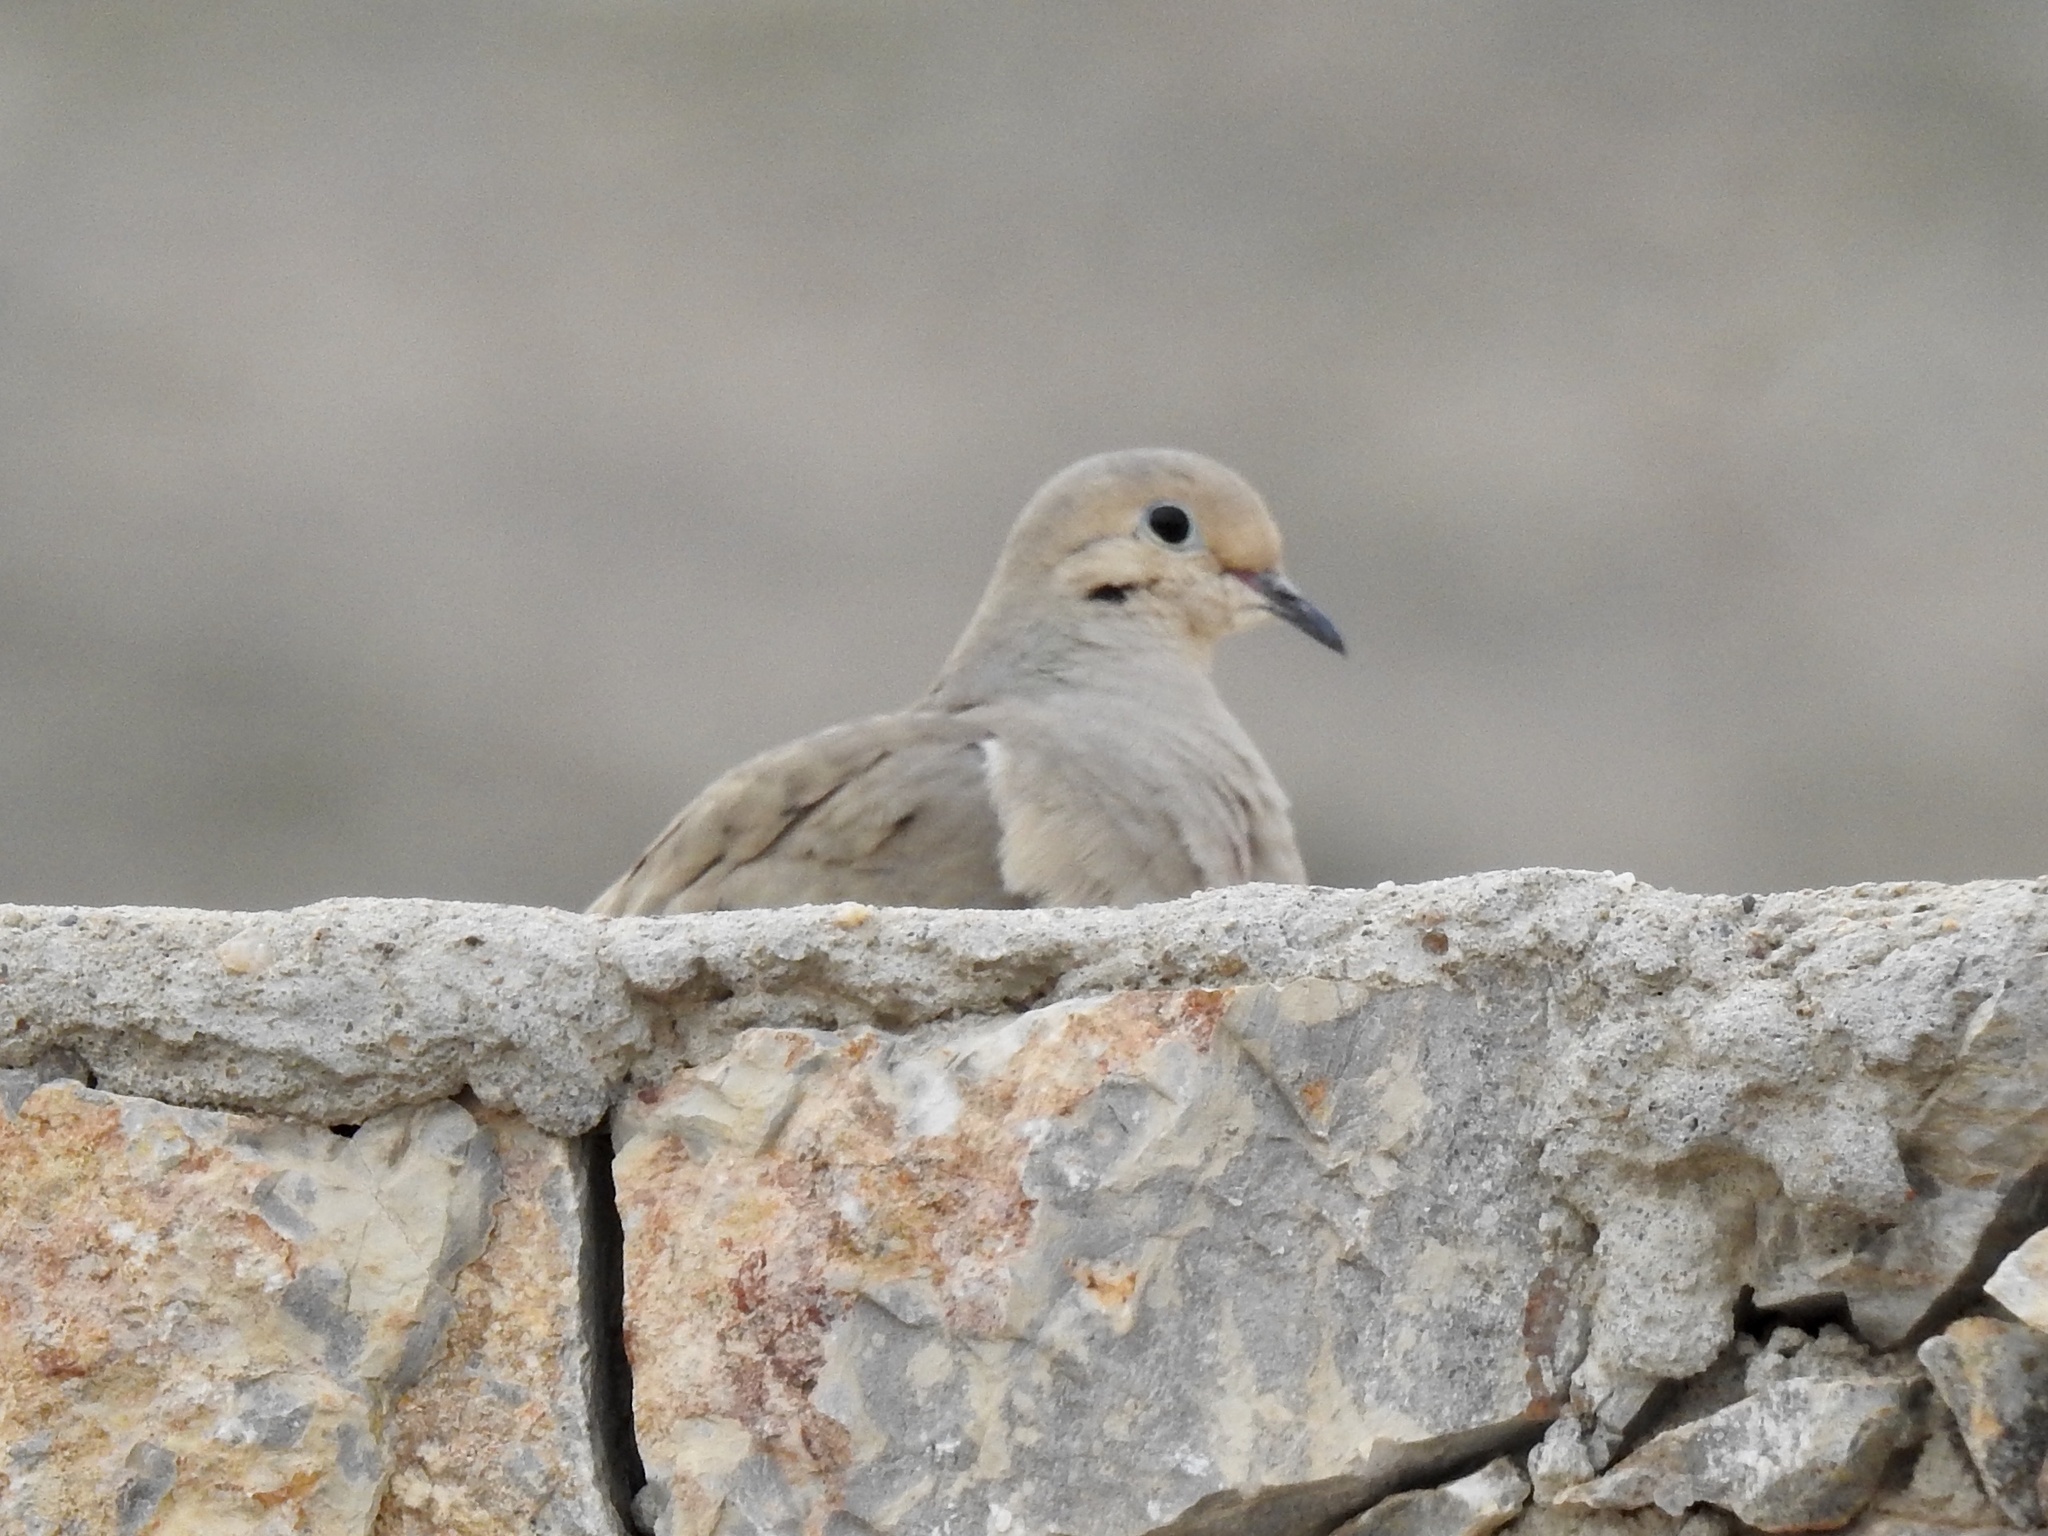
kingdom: Animalia
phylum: Chordata
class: Aves
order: Columbiformes
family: Columbidae
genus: Zenaida
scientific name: Zenaida macroura
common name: Mourning dove
